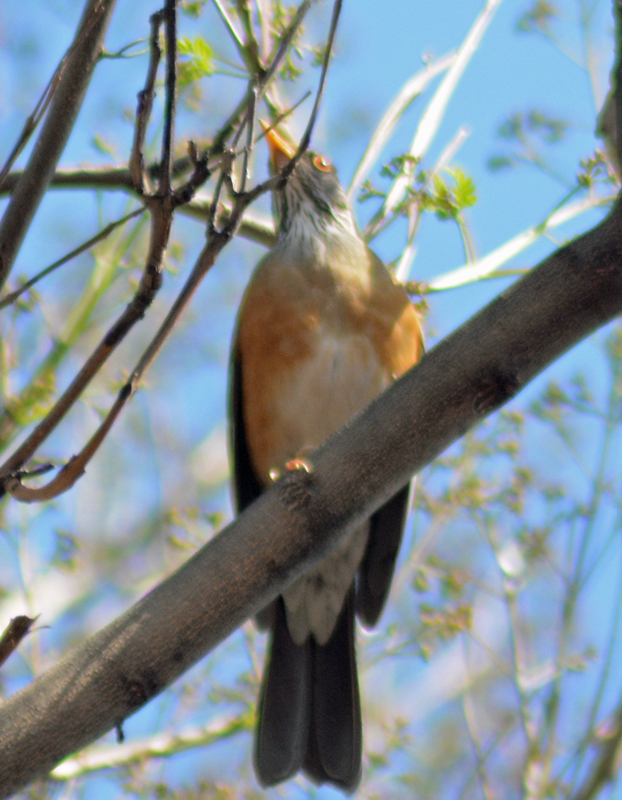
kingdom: Animalia
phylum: Chordata
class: Aves
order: Passeriformes
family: Turdidae
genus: Turdus
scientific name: Turdus rufopalliatus
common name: Rufous-backed robin
